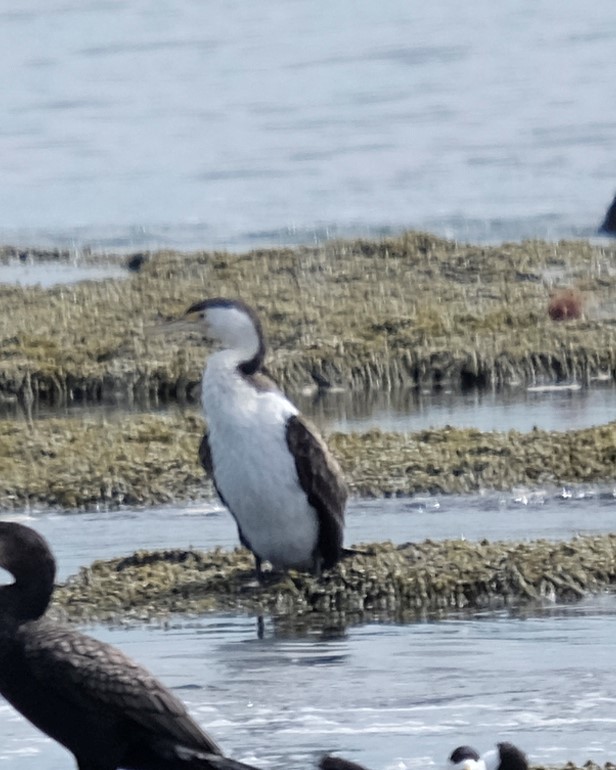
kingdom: Animalia
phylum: Chordata
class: Aves
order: Suliformes
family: Phalacrocoracidae
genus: Phalacrocorax
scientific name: Phalacrocorax varius
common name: Pied cormorant
